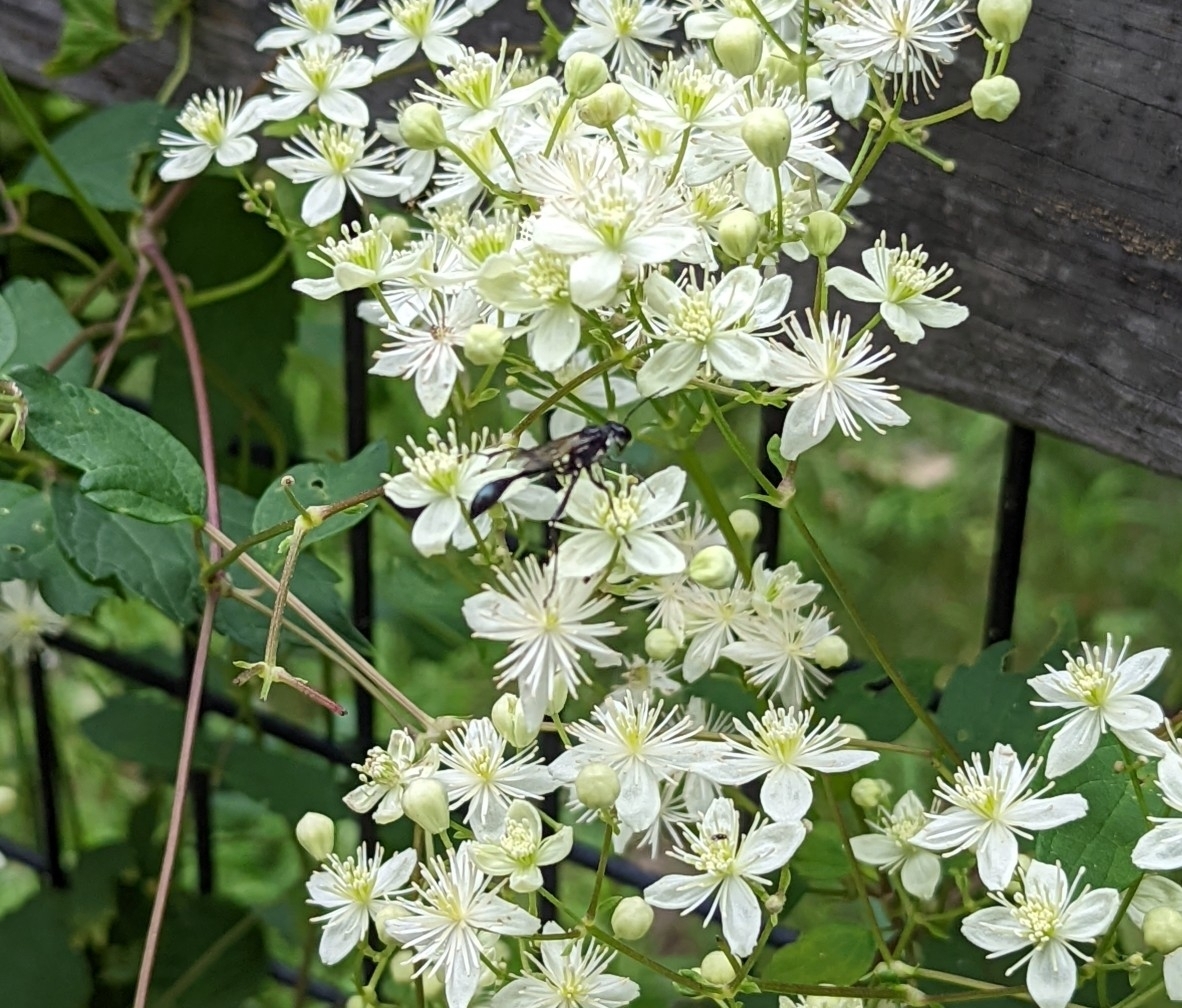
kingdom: Animalia
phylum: Arthropoda
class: Insecta
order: Hymenoptera
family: Sphecidae
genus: Eremnophila
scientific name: Eremnophila aureonotata
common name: Gold-marked thread-waisted wasp
